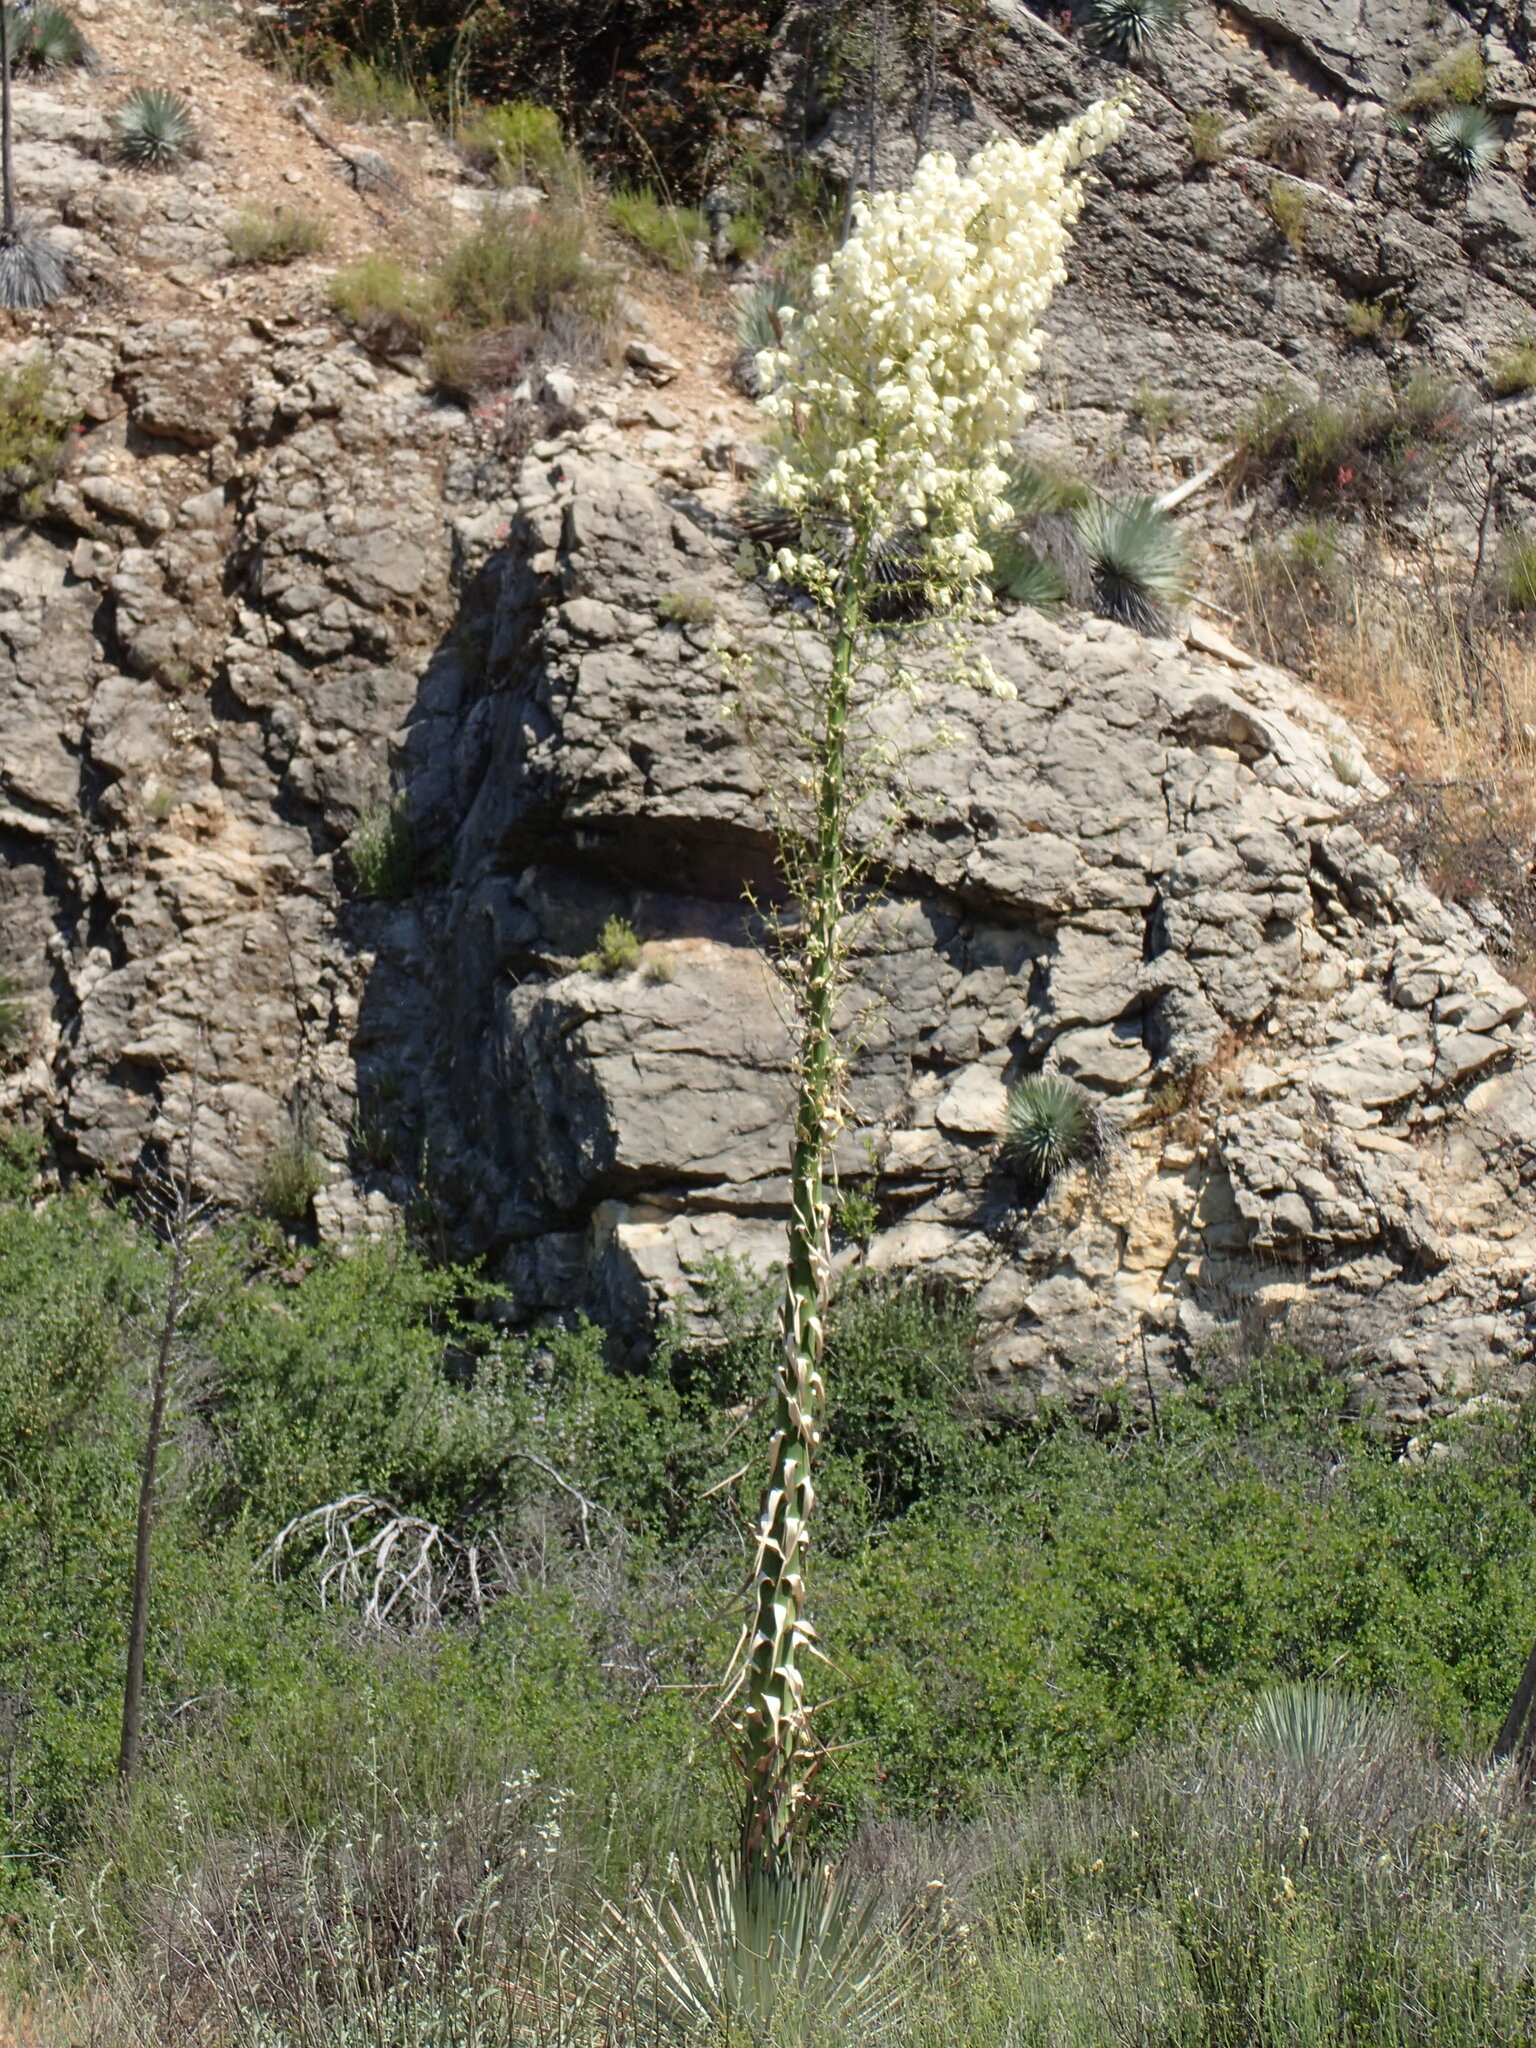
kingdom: Plantae
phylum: Tracheophyta
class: Liliopsida
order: Asparagales
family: Asparagaceae
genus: Hesperoyucca
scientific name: Hesperoyucca whipplei
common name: Our lord's-candle
